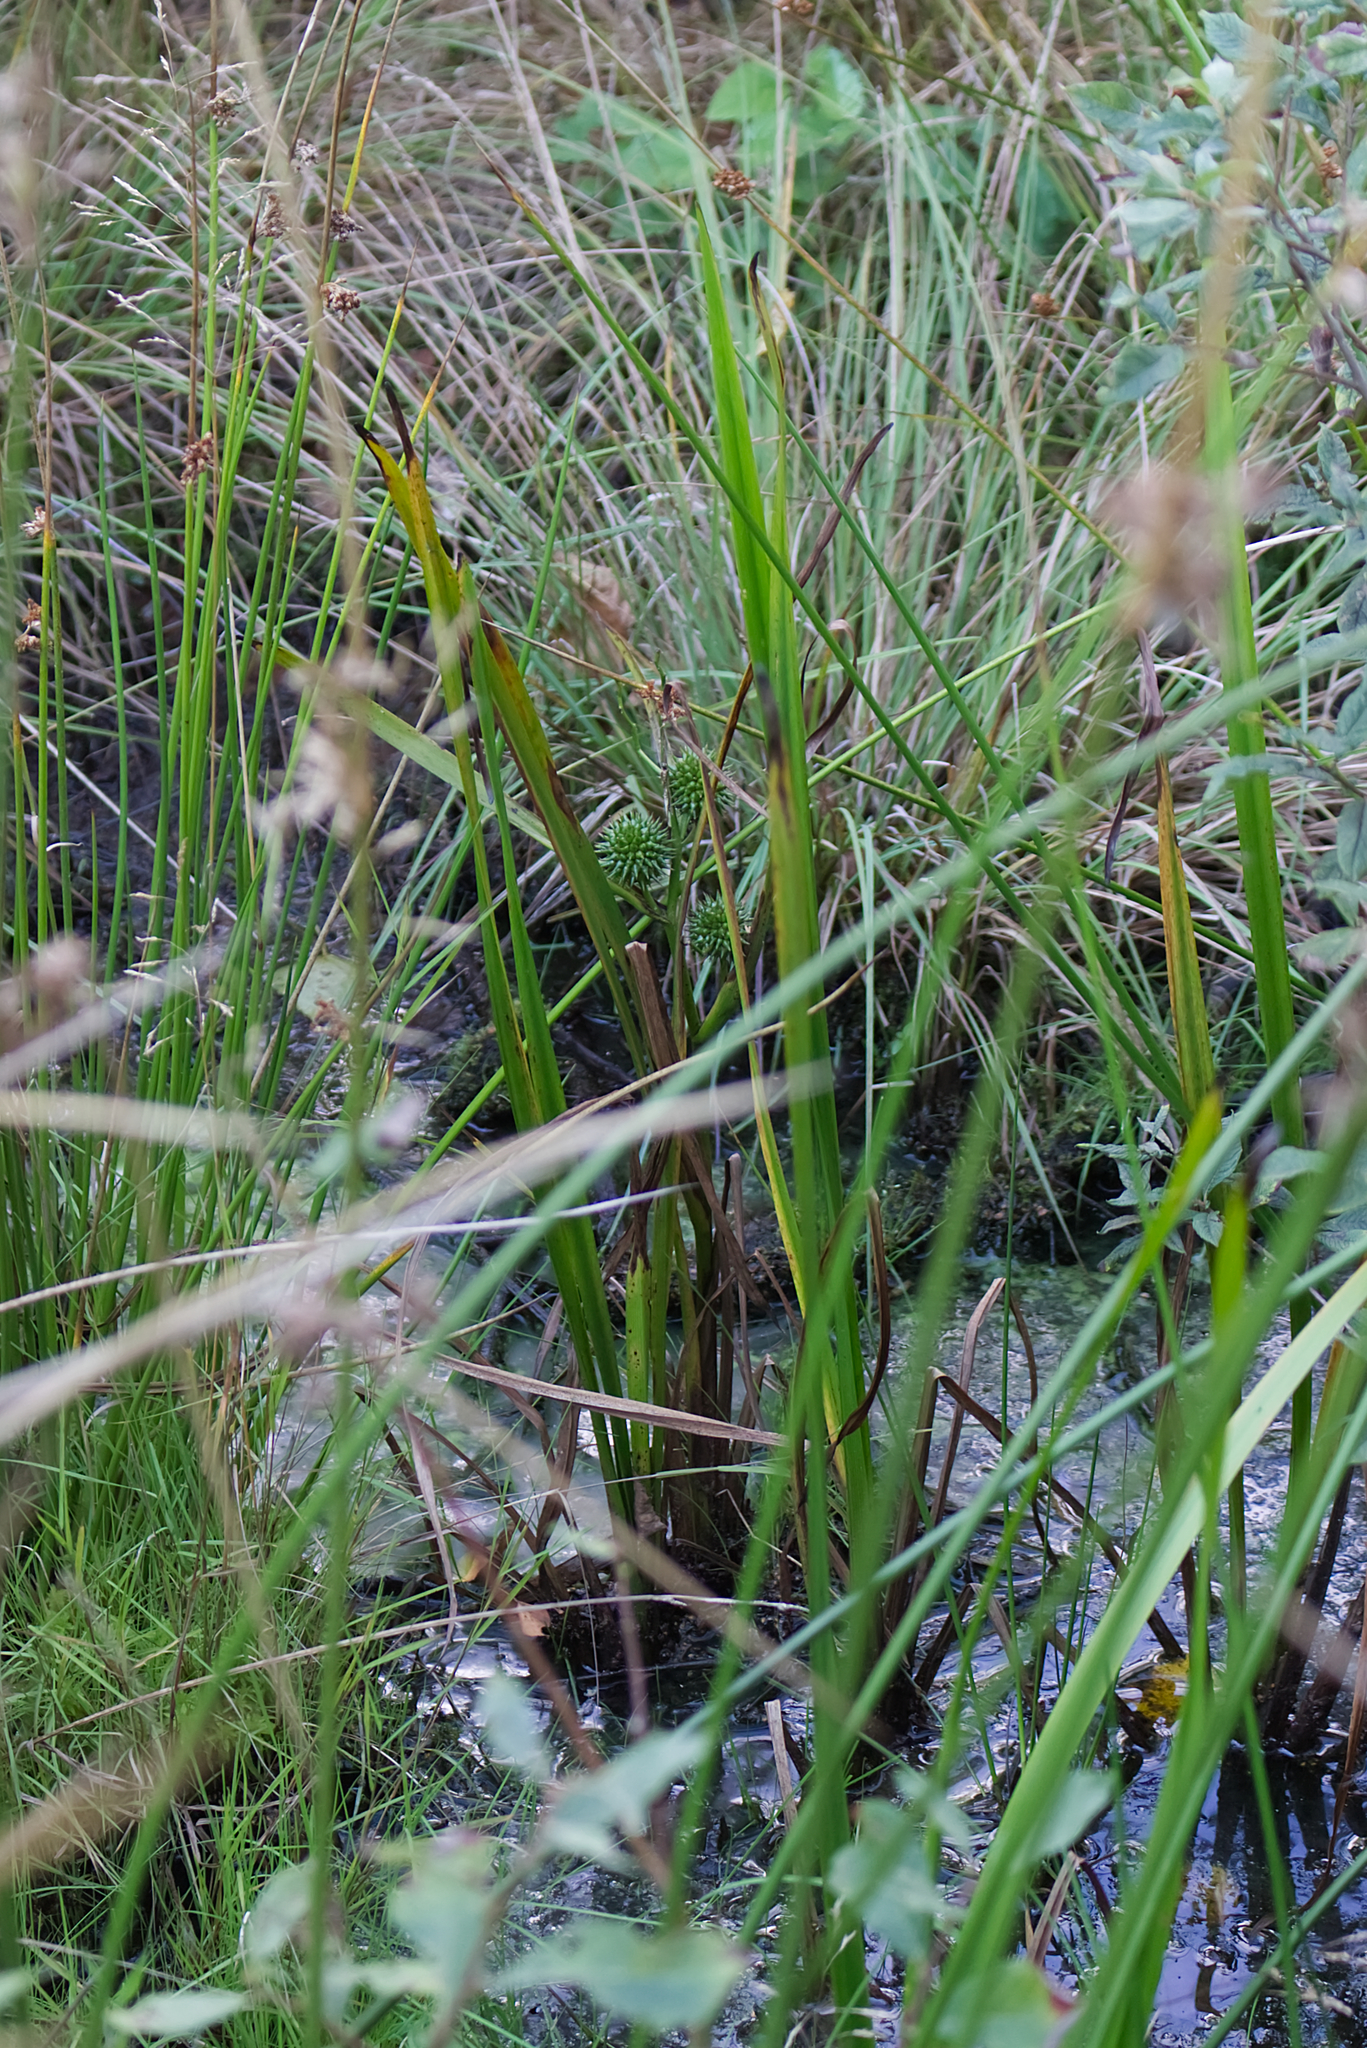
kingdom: Plantae
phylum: Tracheophyta
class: Liliopsida
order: Poales
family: Typhaceae
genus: Sparganium
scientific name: Sparganium erectum
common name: Branched bur-reed
